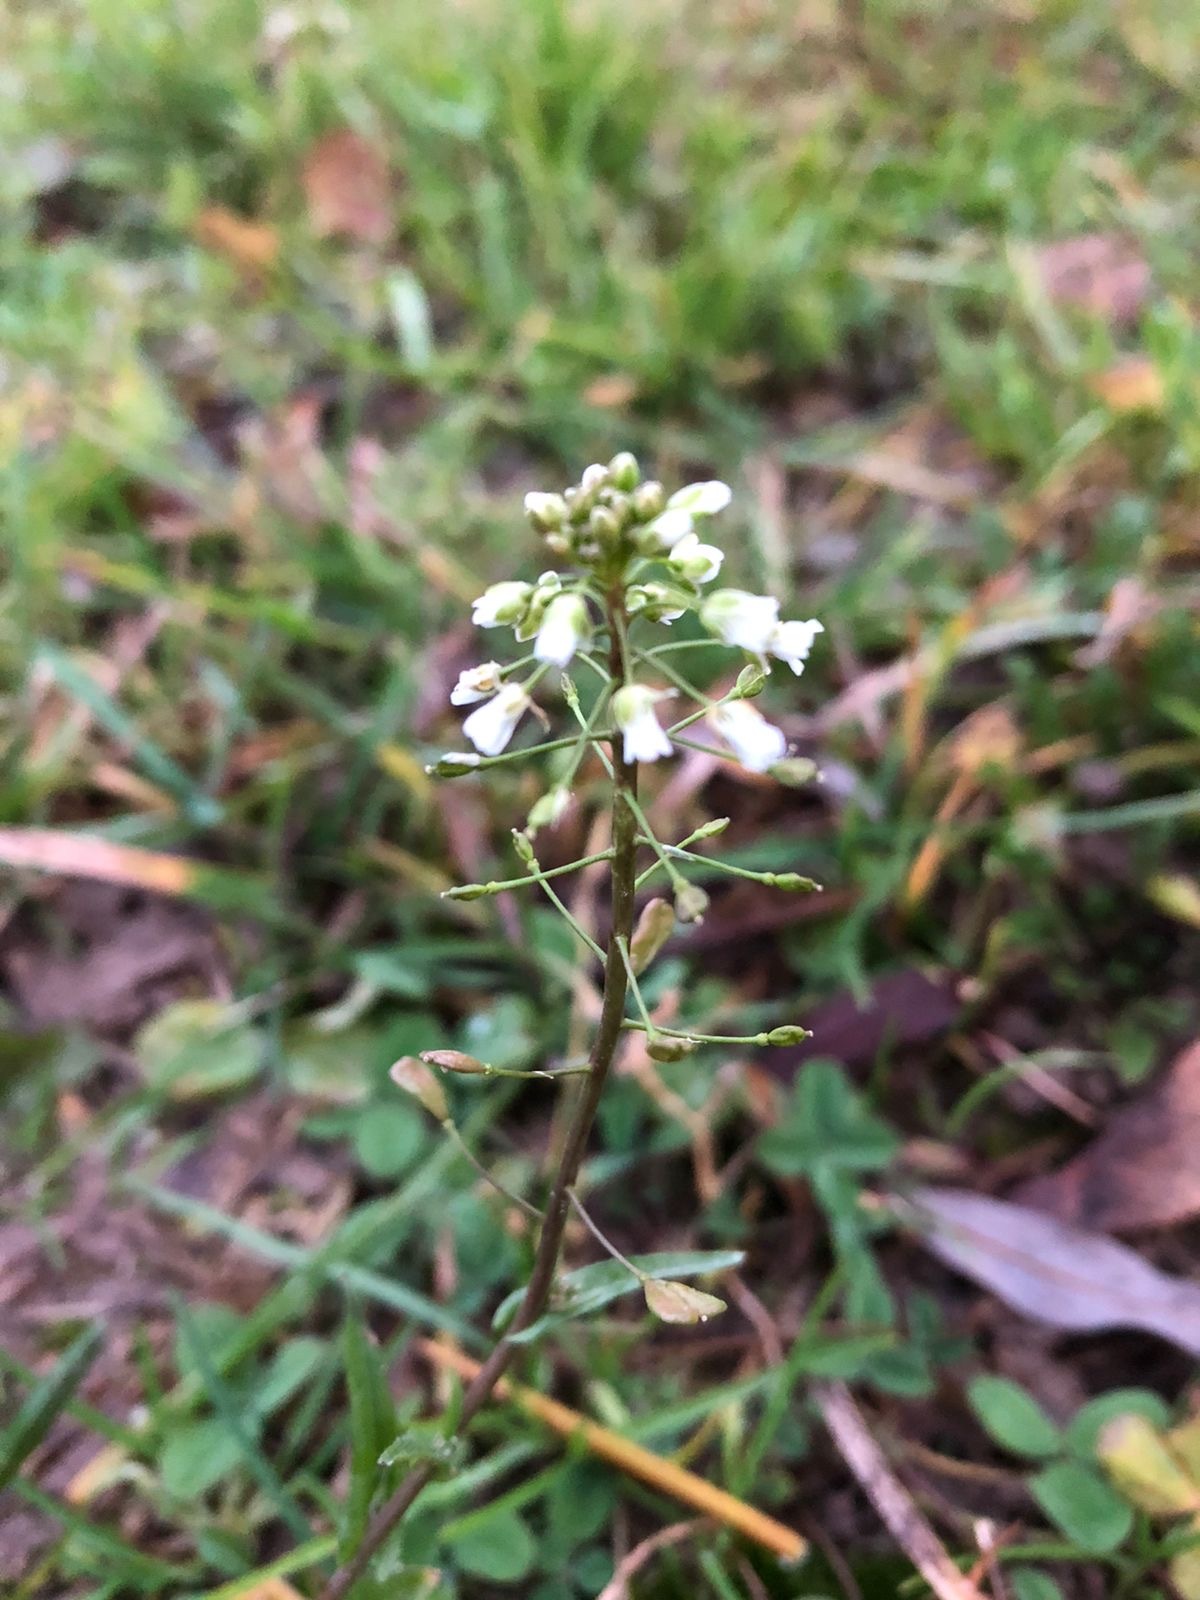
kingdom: Plantae
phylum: Tracheophyta
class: Magnoliopsida
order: Brassicales
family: Brassicaceae
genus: Capsella
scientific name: Capsella bursa-pastoris
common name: Shepherd's purse
